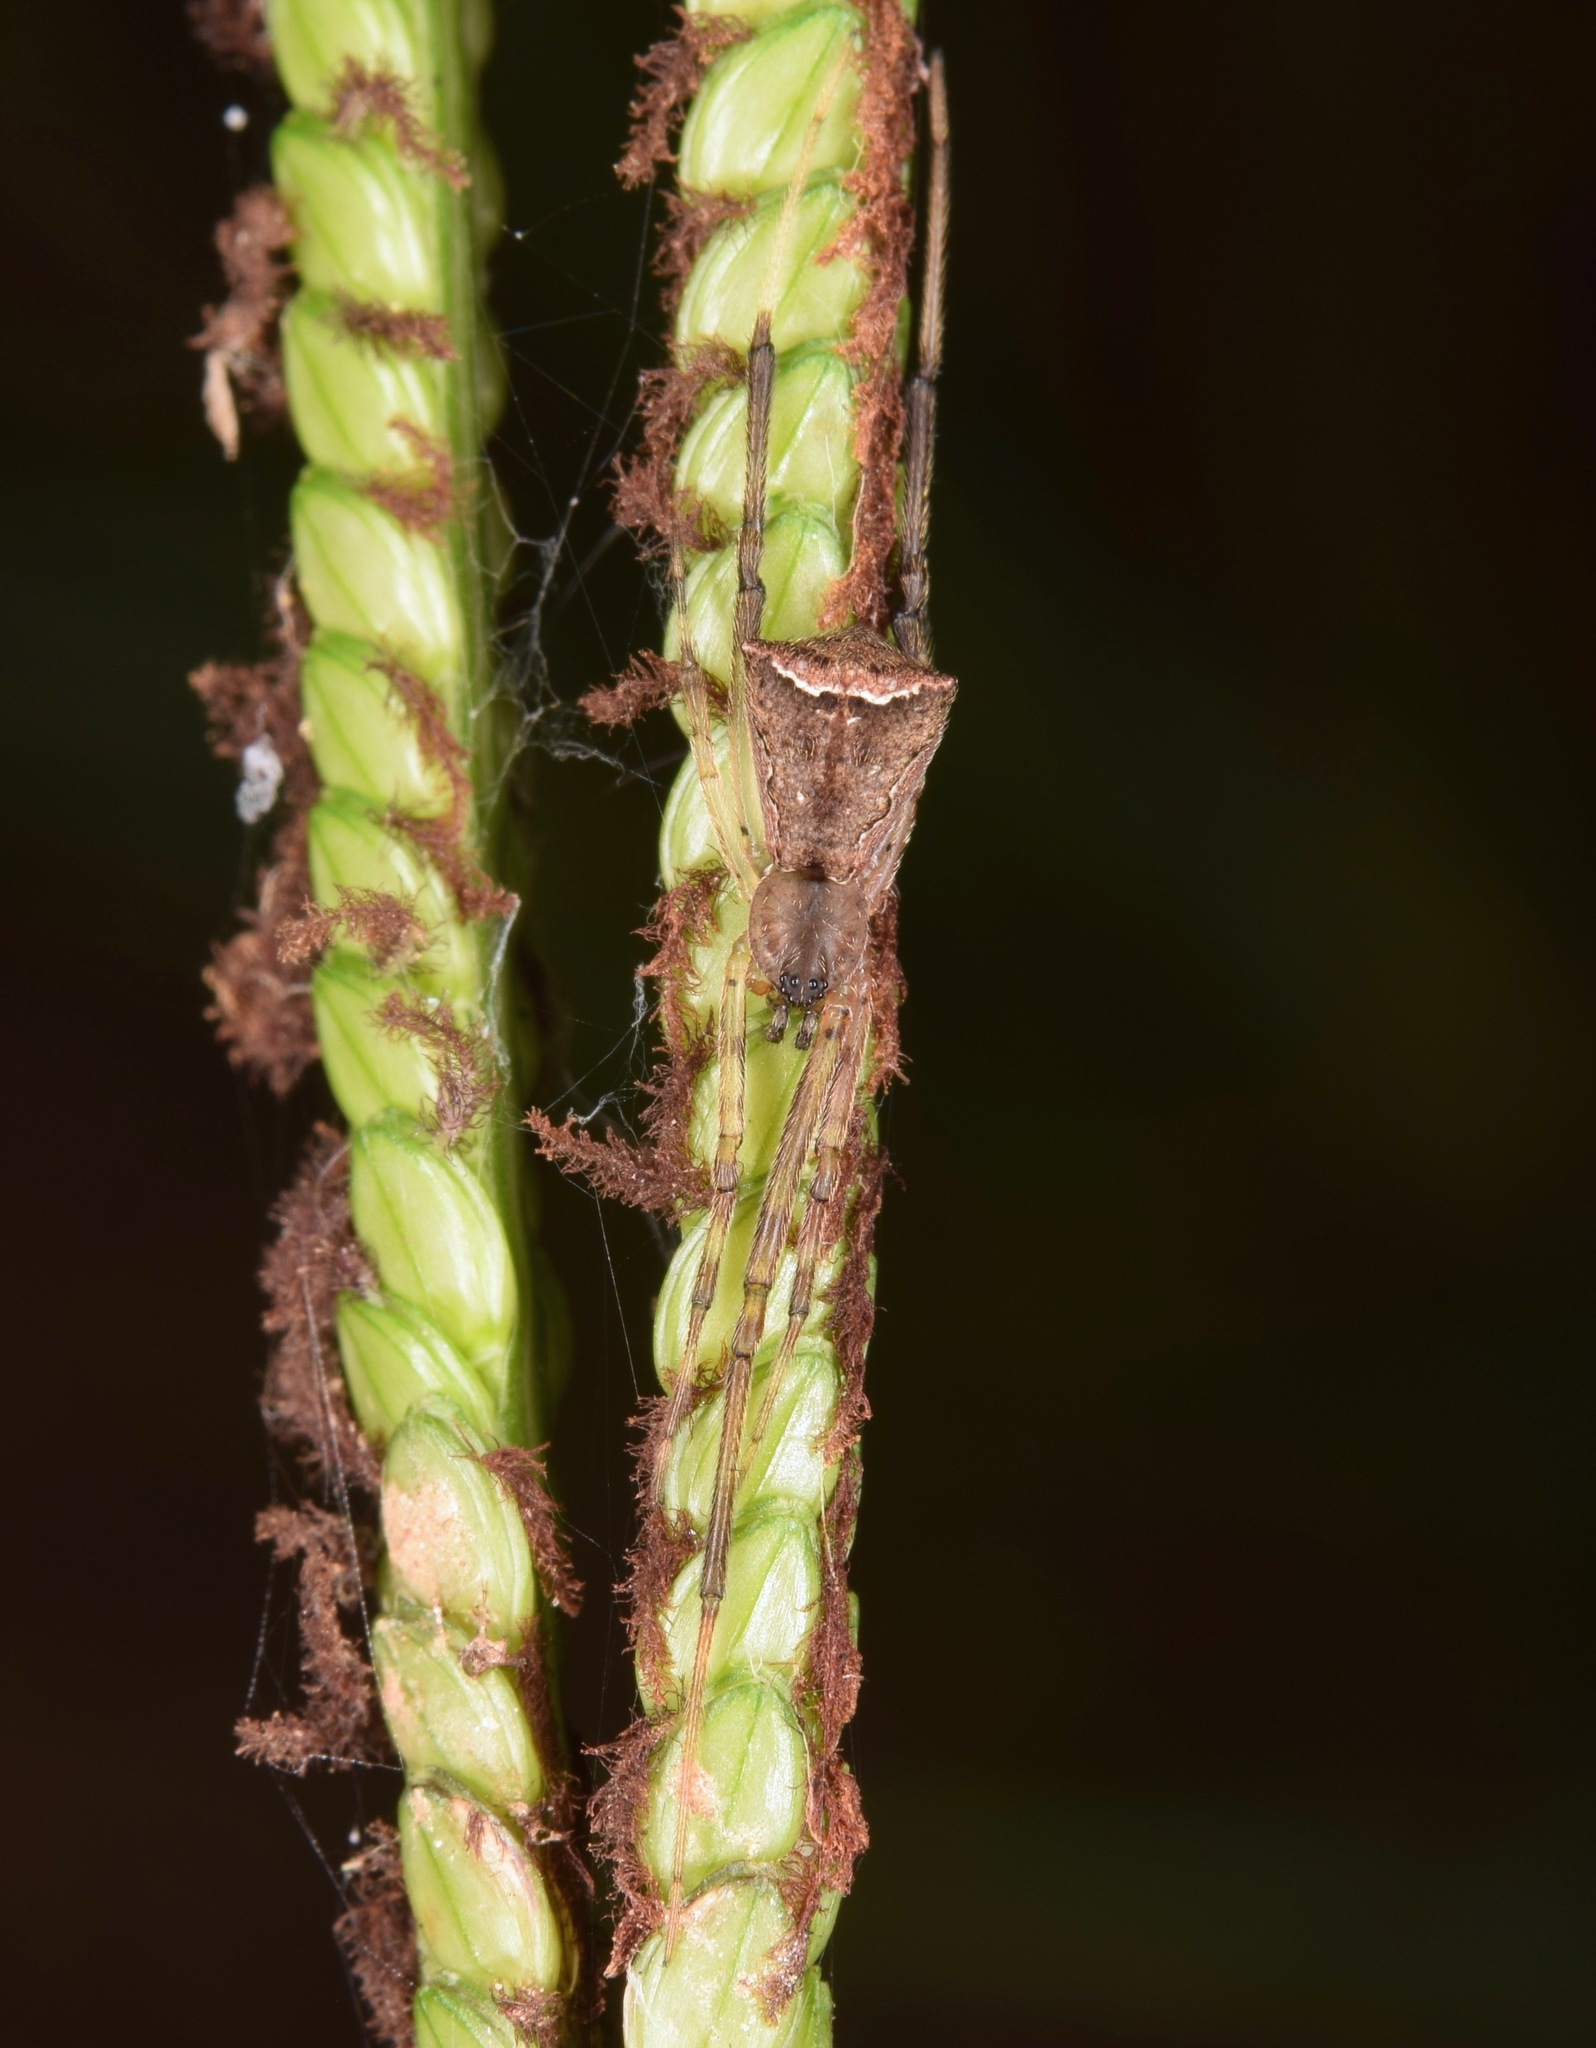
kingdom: Animalia
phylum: Arthropoda
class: Arachnida
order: Araneae
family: Theridiidae
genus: Episinus
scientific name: Episinus amoenus
